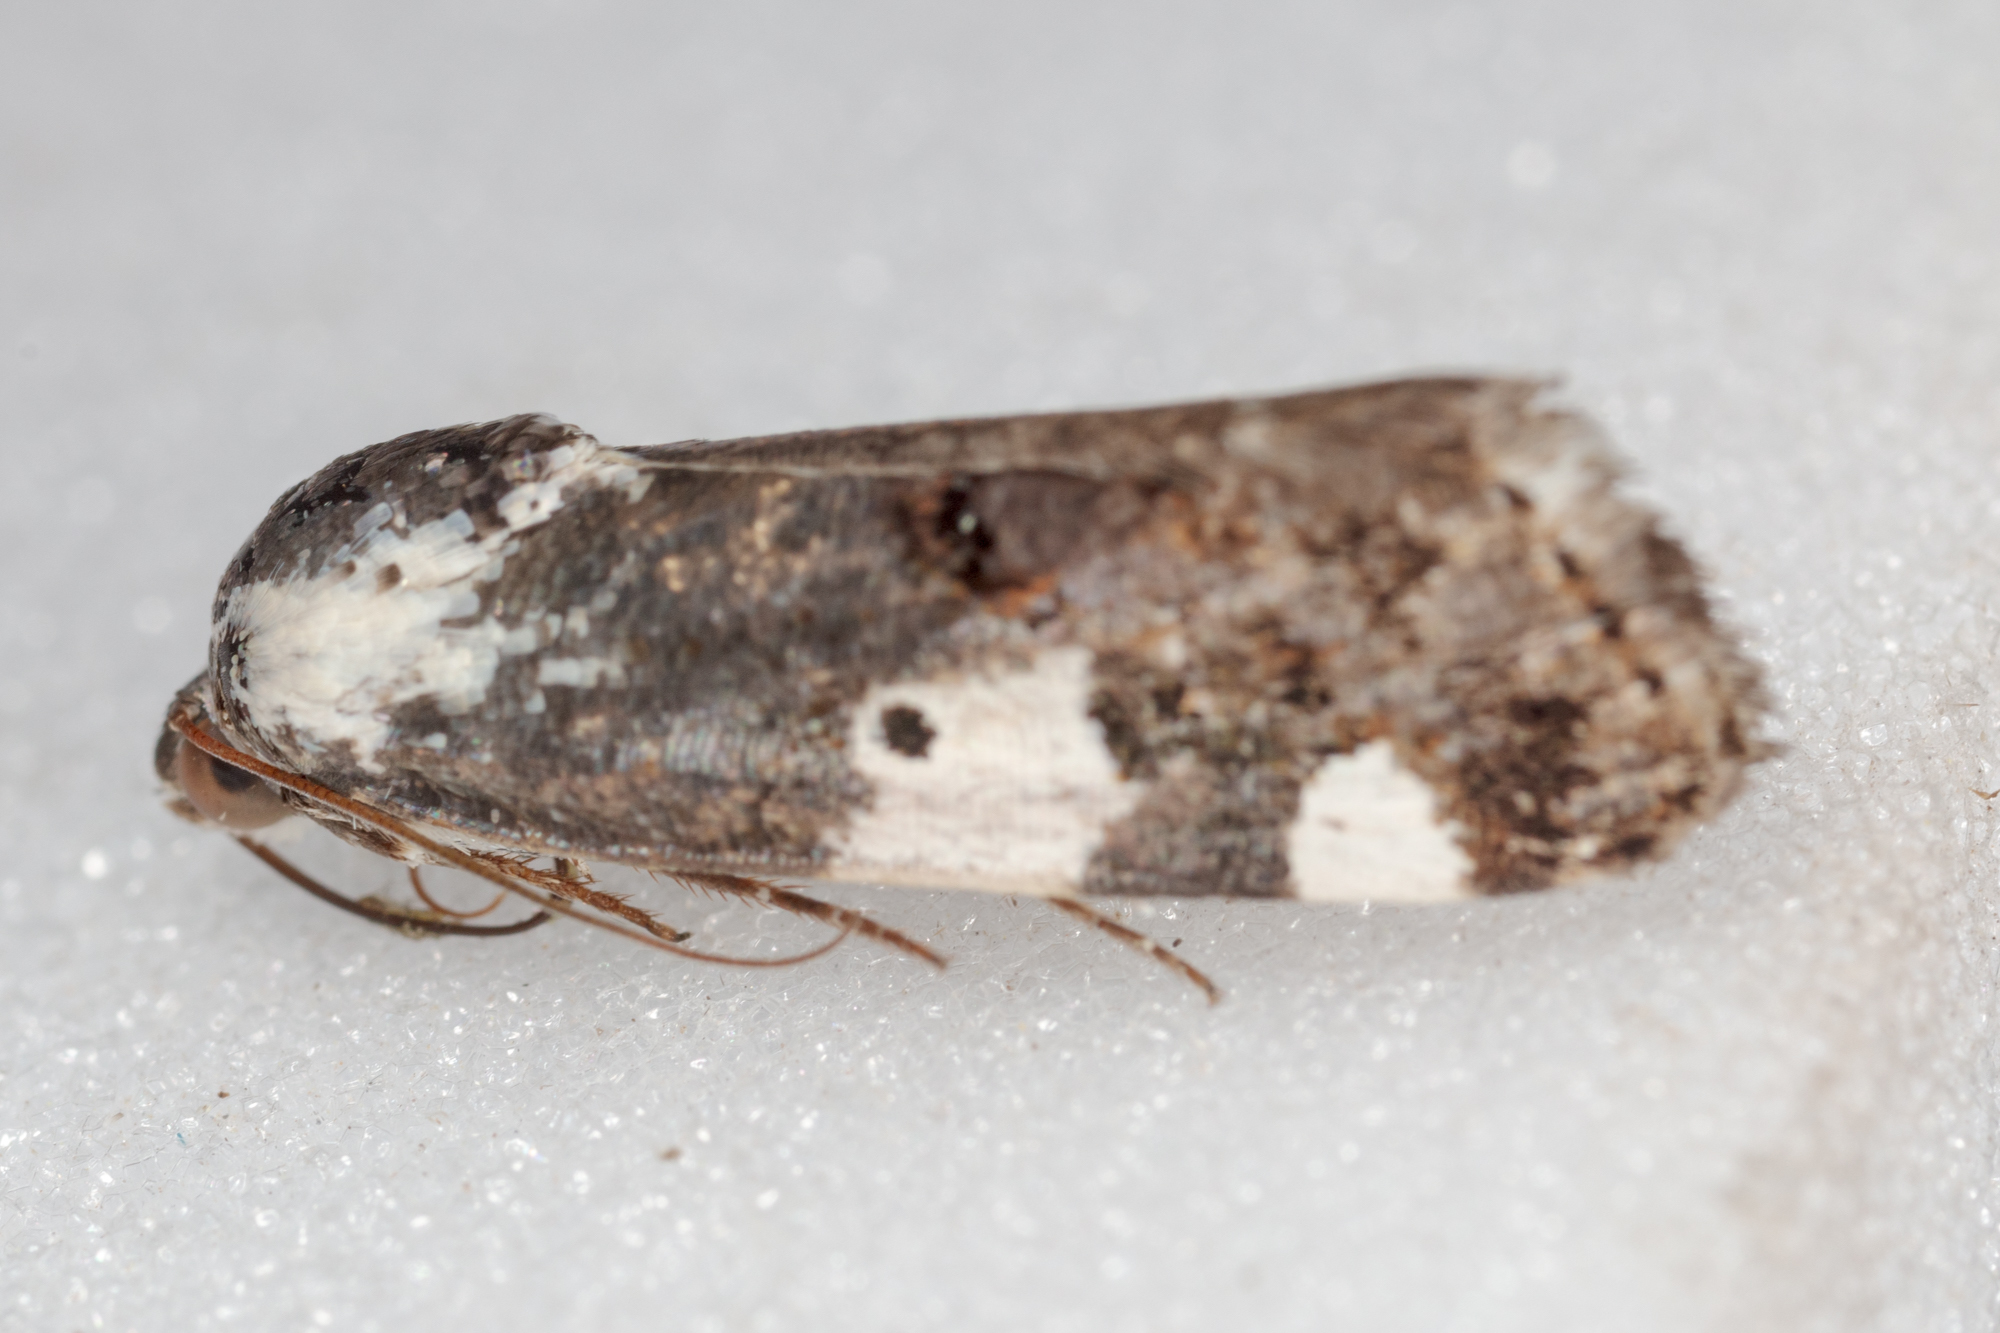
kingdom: Animalia
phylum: Arthropoda
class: Insecta
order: Lepidoptera
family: Noctuidae
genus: Acontia
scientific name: Acontia aprica
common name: Nun
